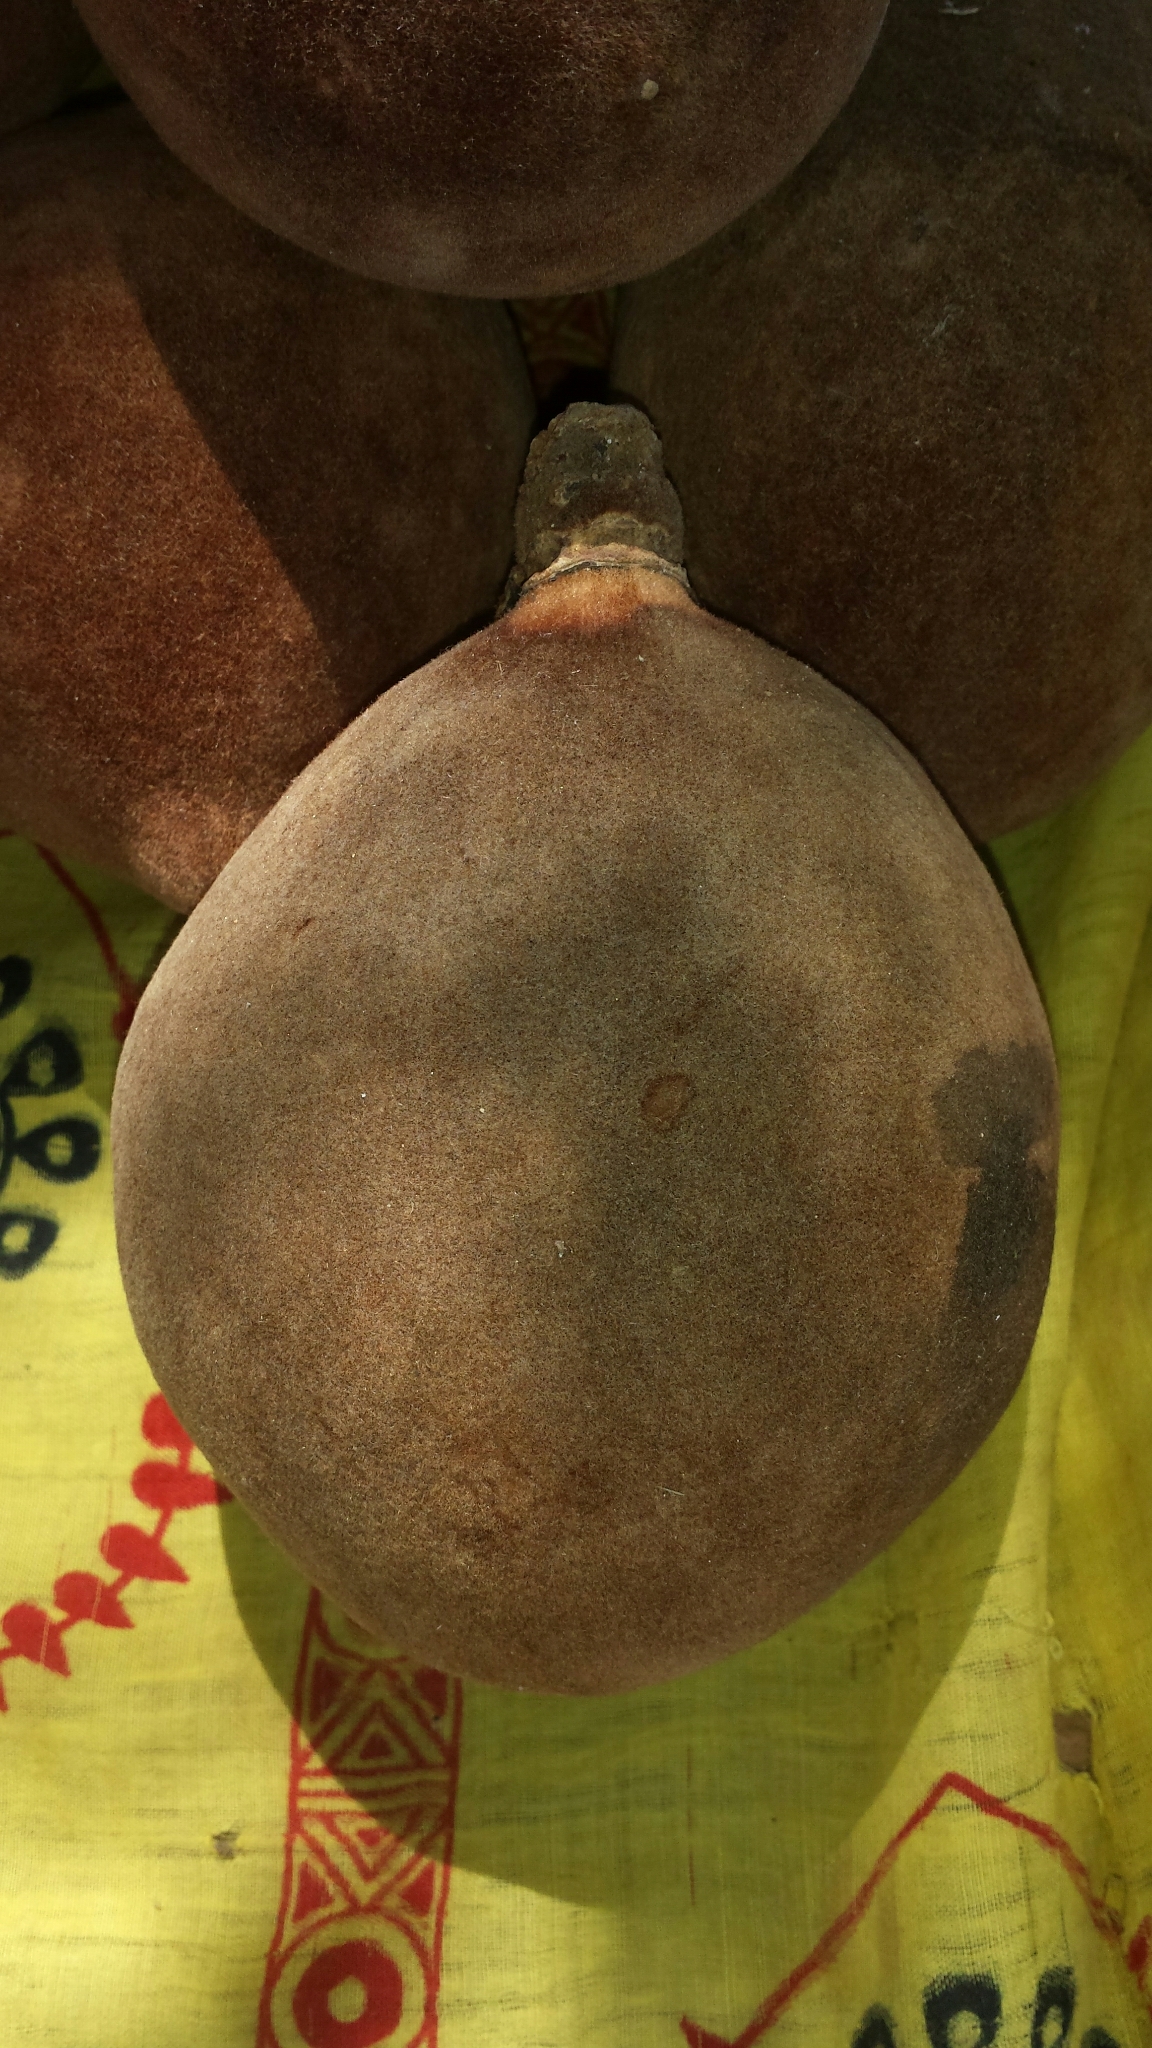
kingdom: Plantae
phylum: Tracheophyta
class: Magnoliopsida
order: Malvales
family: Malvaceae
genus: Adansonia
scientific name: Adansonia grandidieri
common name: Grandidier's baobab
